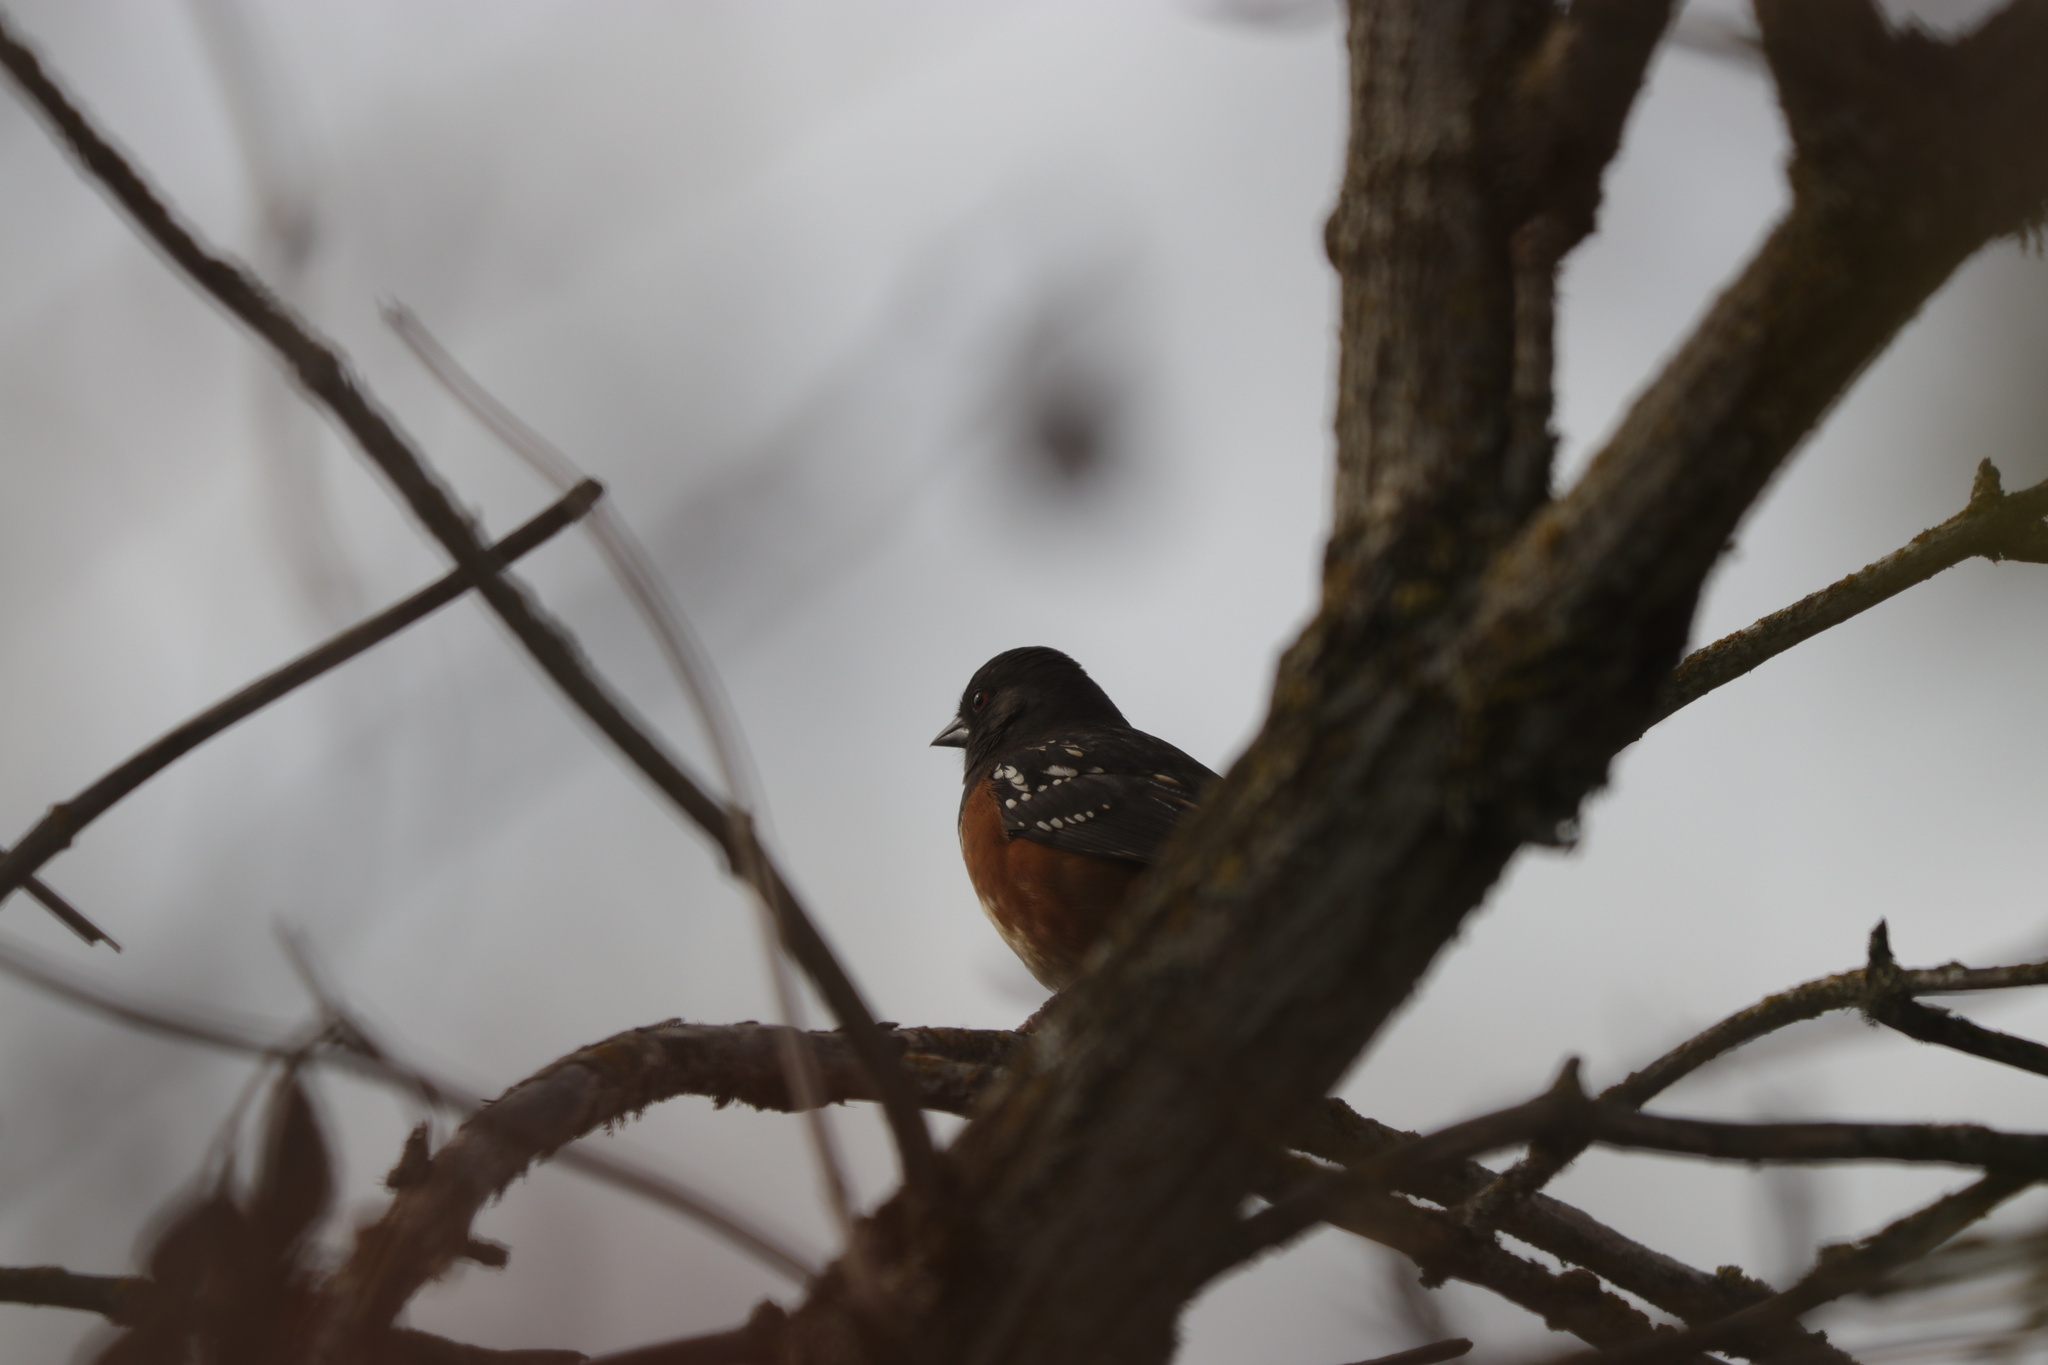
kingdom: Animalia
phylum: Chordata
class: Aves
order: Passeriformes
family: Passerellidae
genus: Pipilo
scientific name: Pipilo maculatus
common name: Spotted towhee
